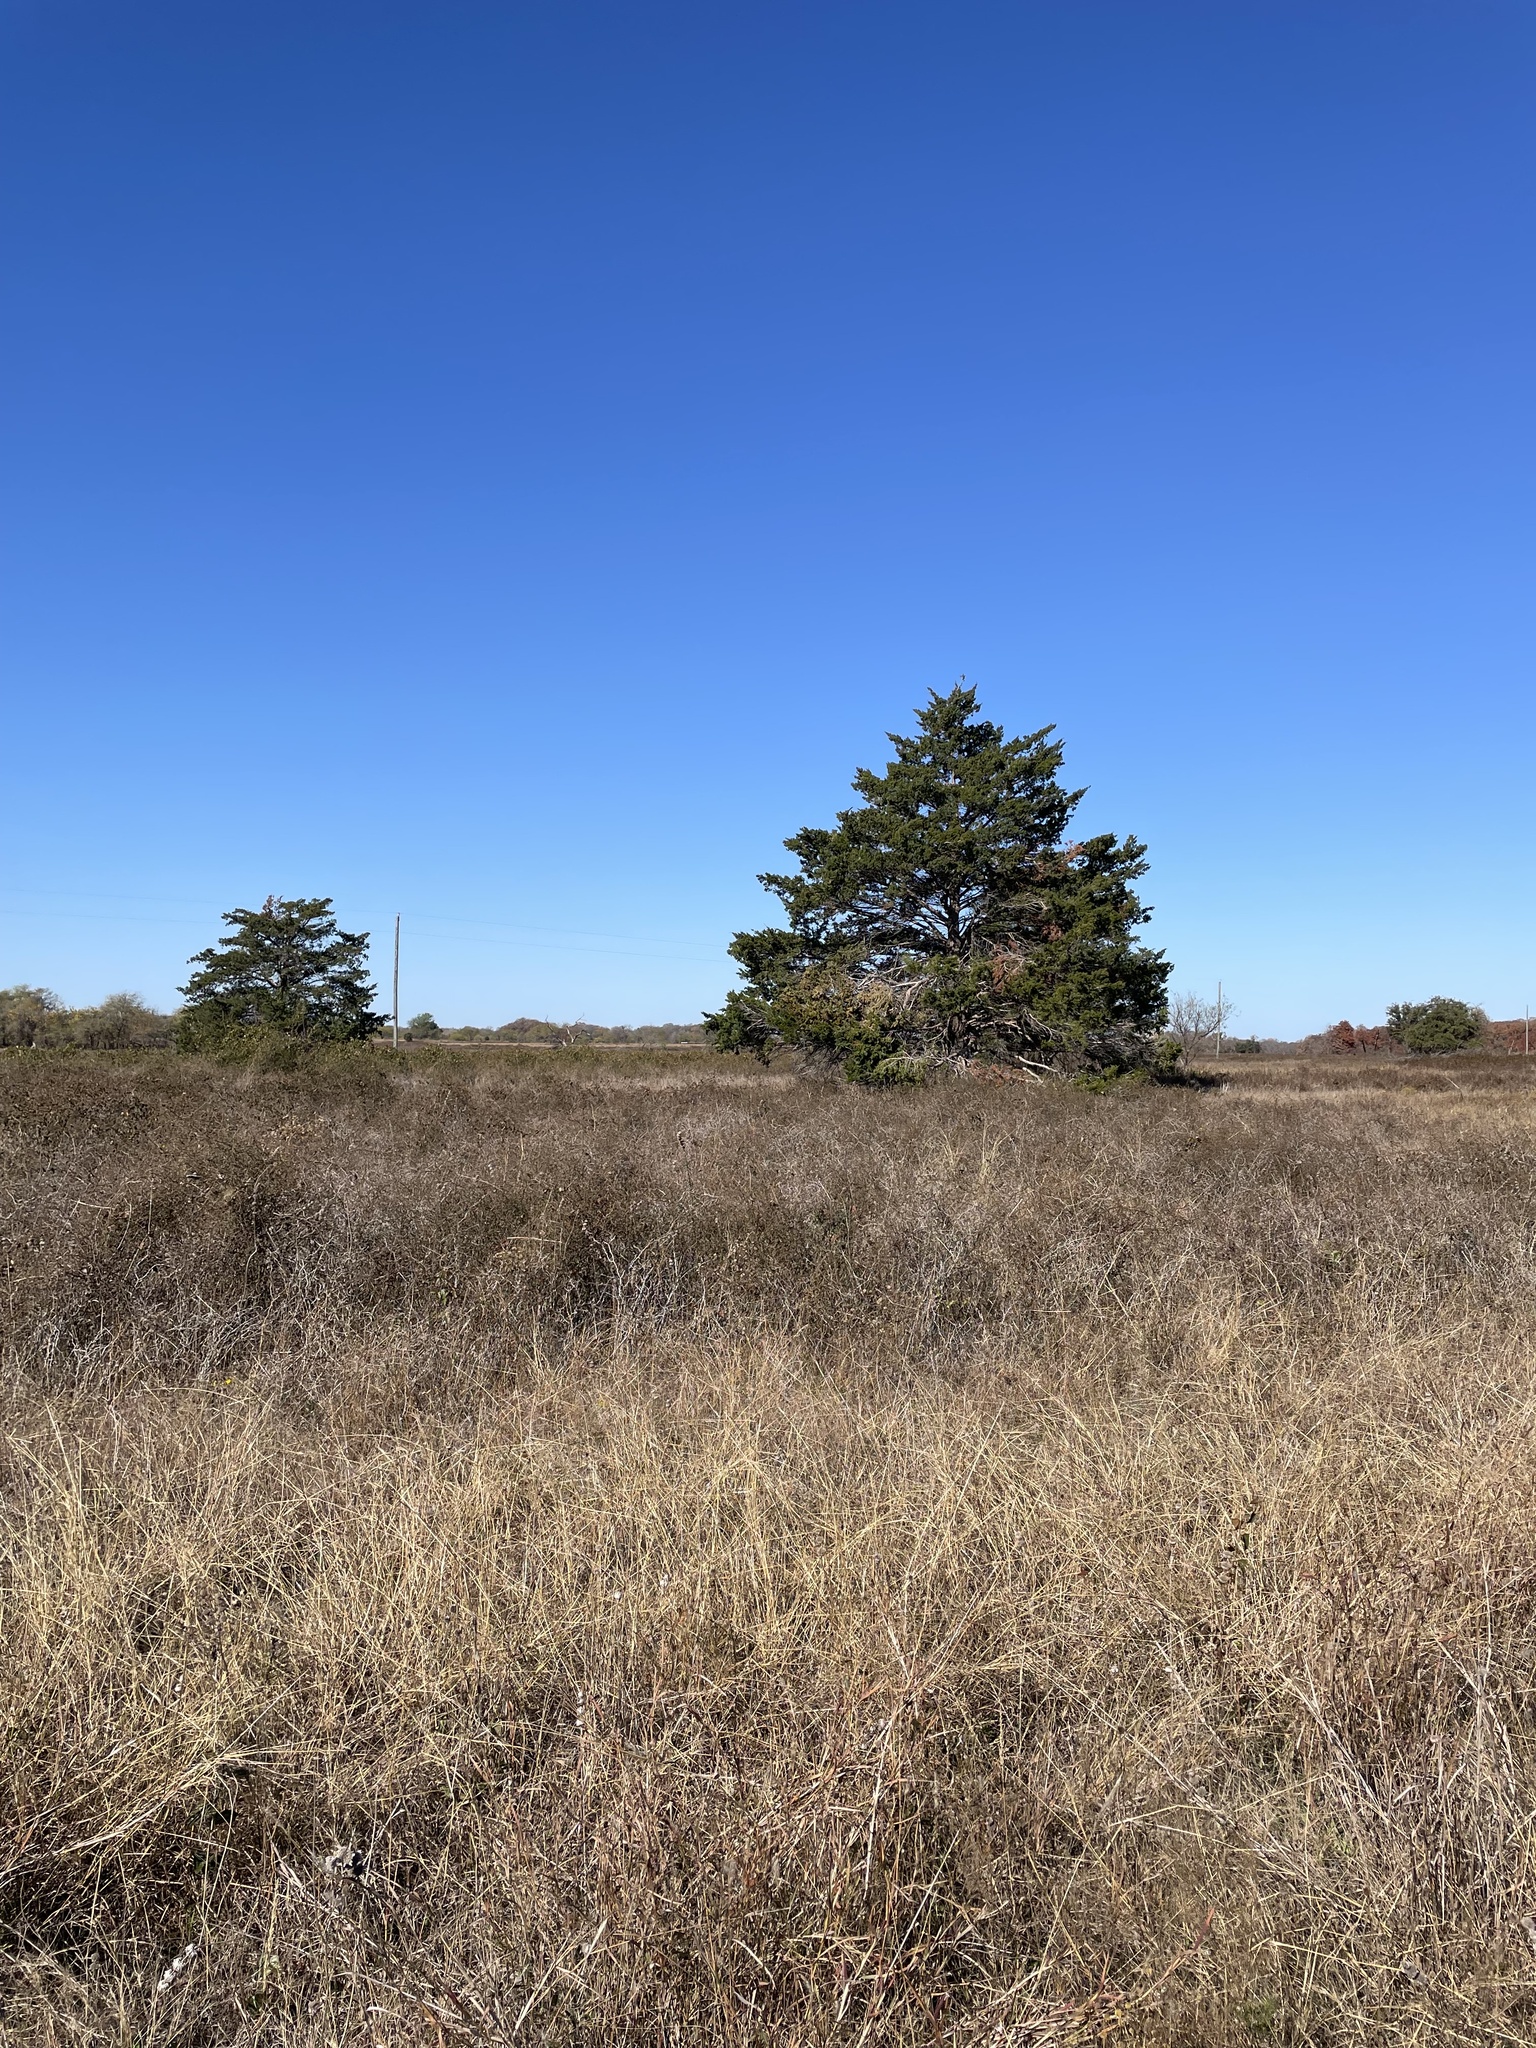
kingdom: Plantae
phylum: Tracheophyta
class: Pinopsida
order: Pinales
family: Cupressaceae
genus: Juniperus
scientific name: Juniperus virginiana
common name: Red juniper
